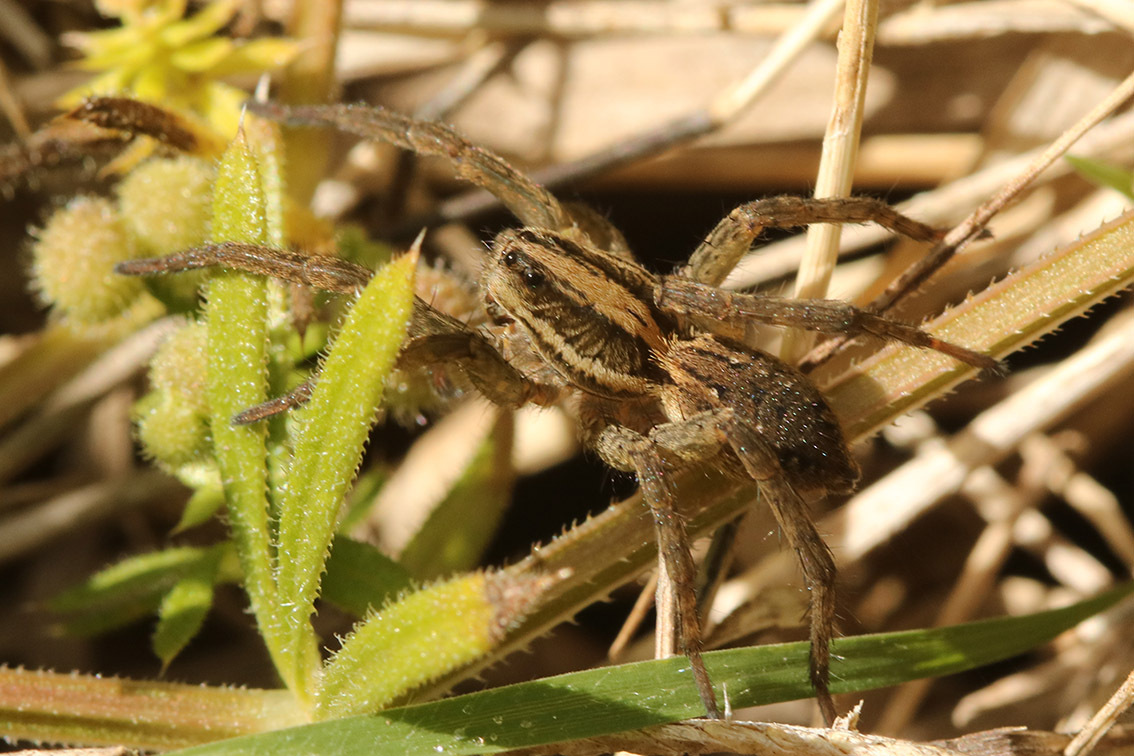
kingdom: Animalia
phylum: Arthropoda
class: Arachnida
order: Araneae
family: Lycosidae
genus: Alopecosa
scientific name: Alopecosa moesta
